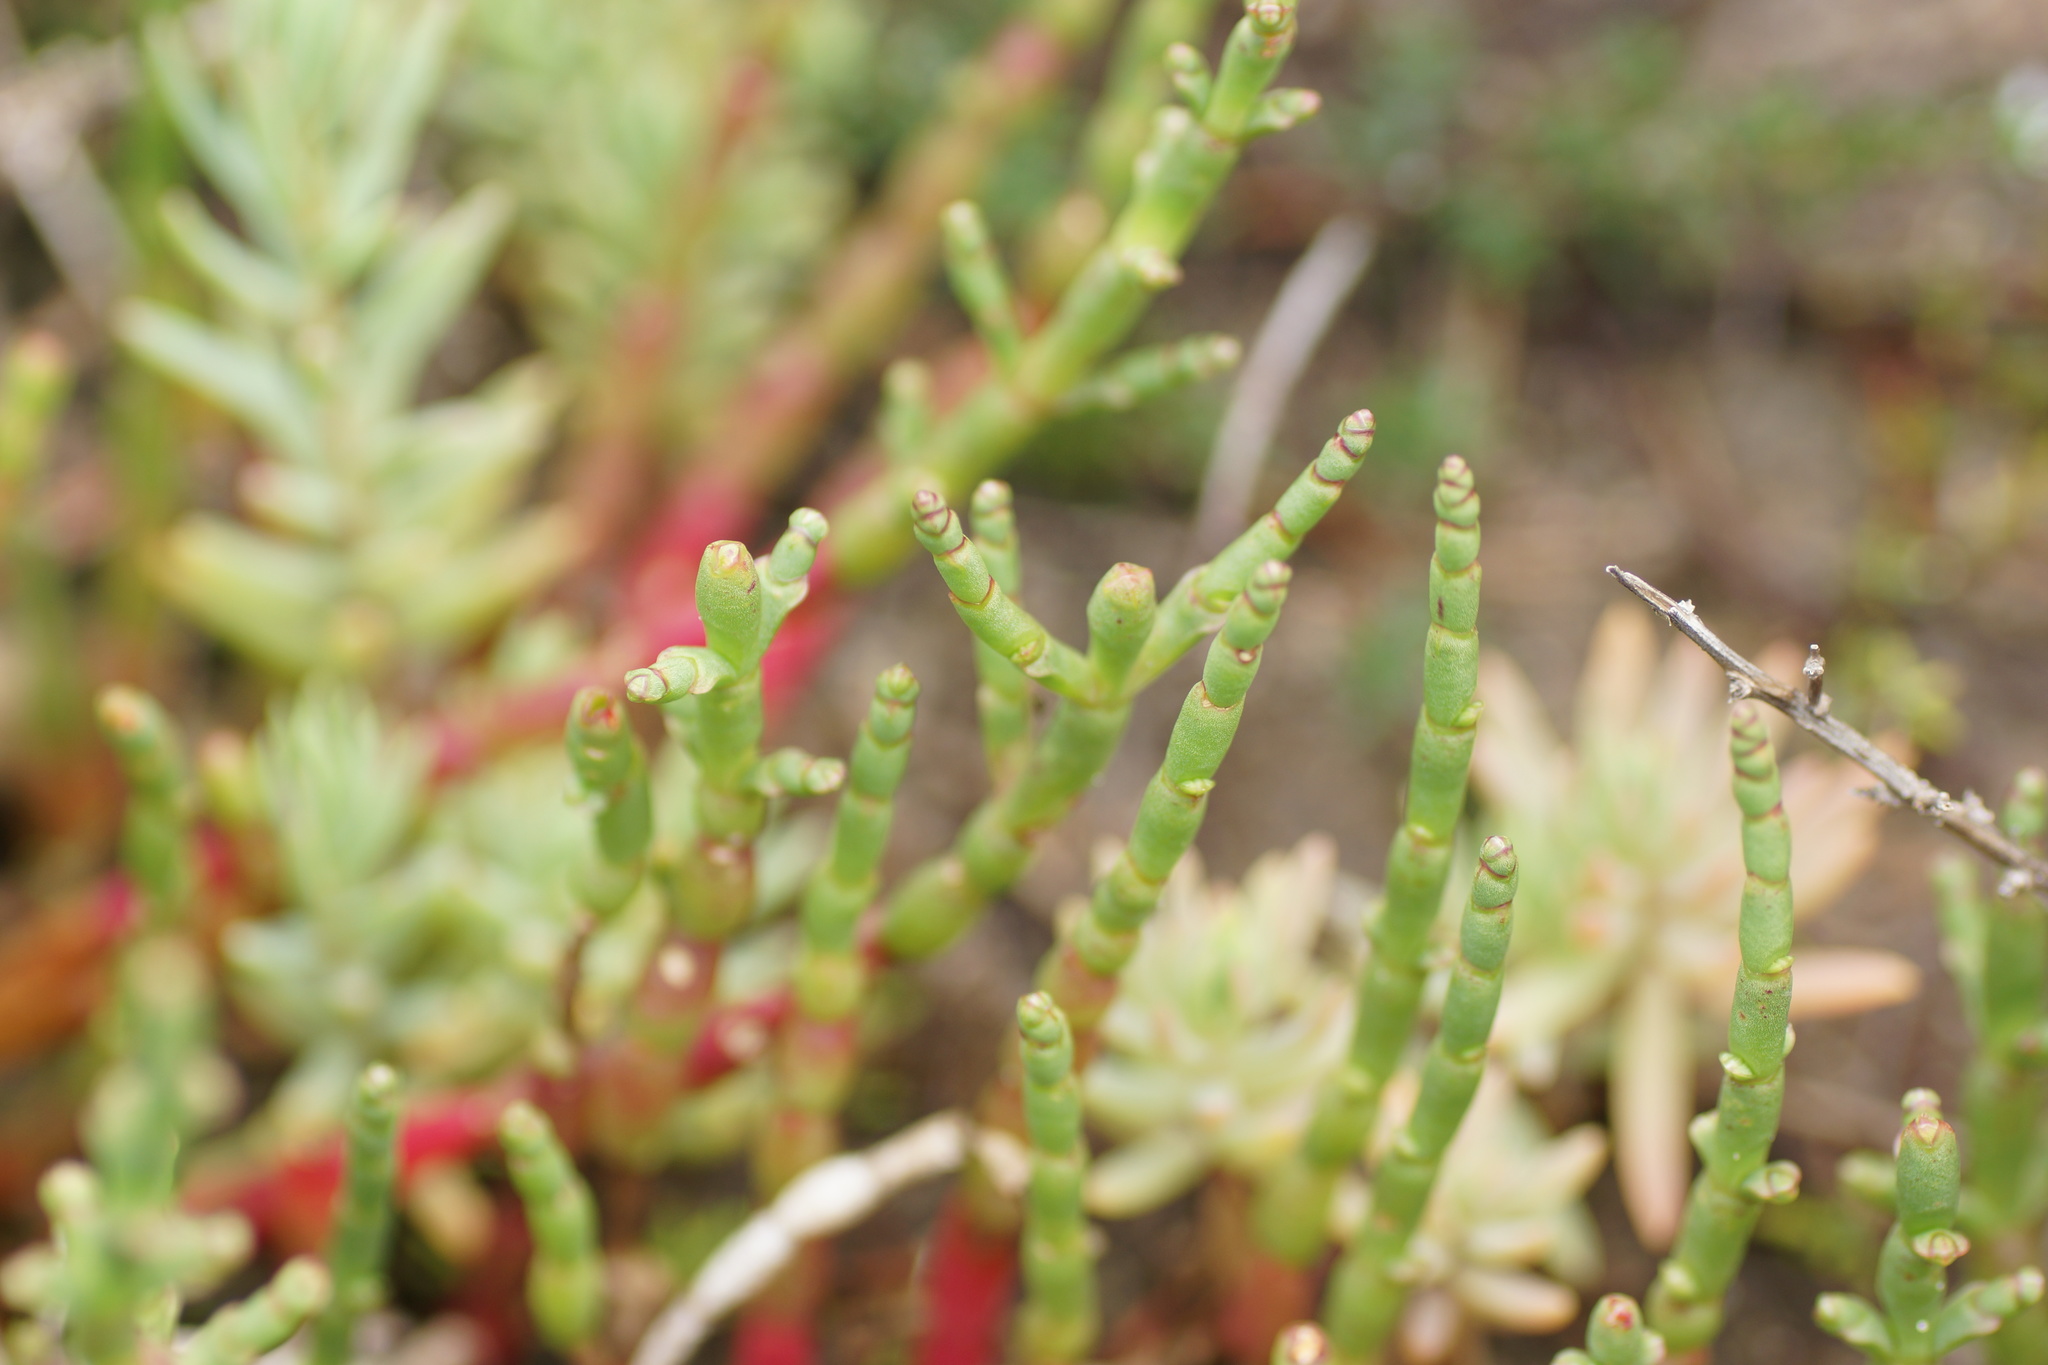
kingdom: Plantae
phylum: Tracheophyta
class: Magnoliopsida
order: Caryophyllales
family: Amaranthaceae
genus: Salicornia
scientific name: Salicornia quinqueflora
